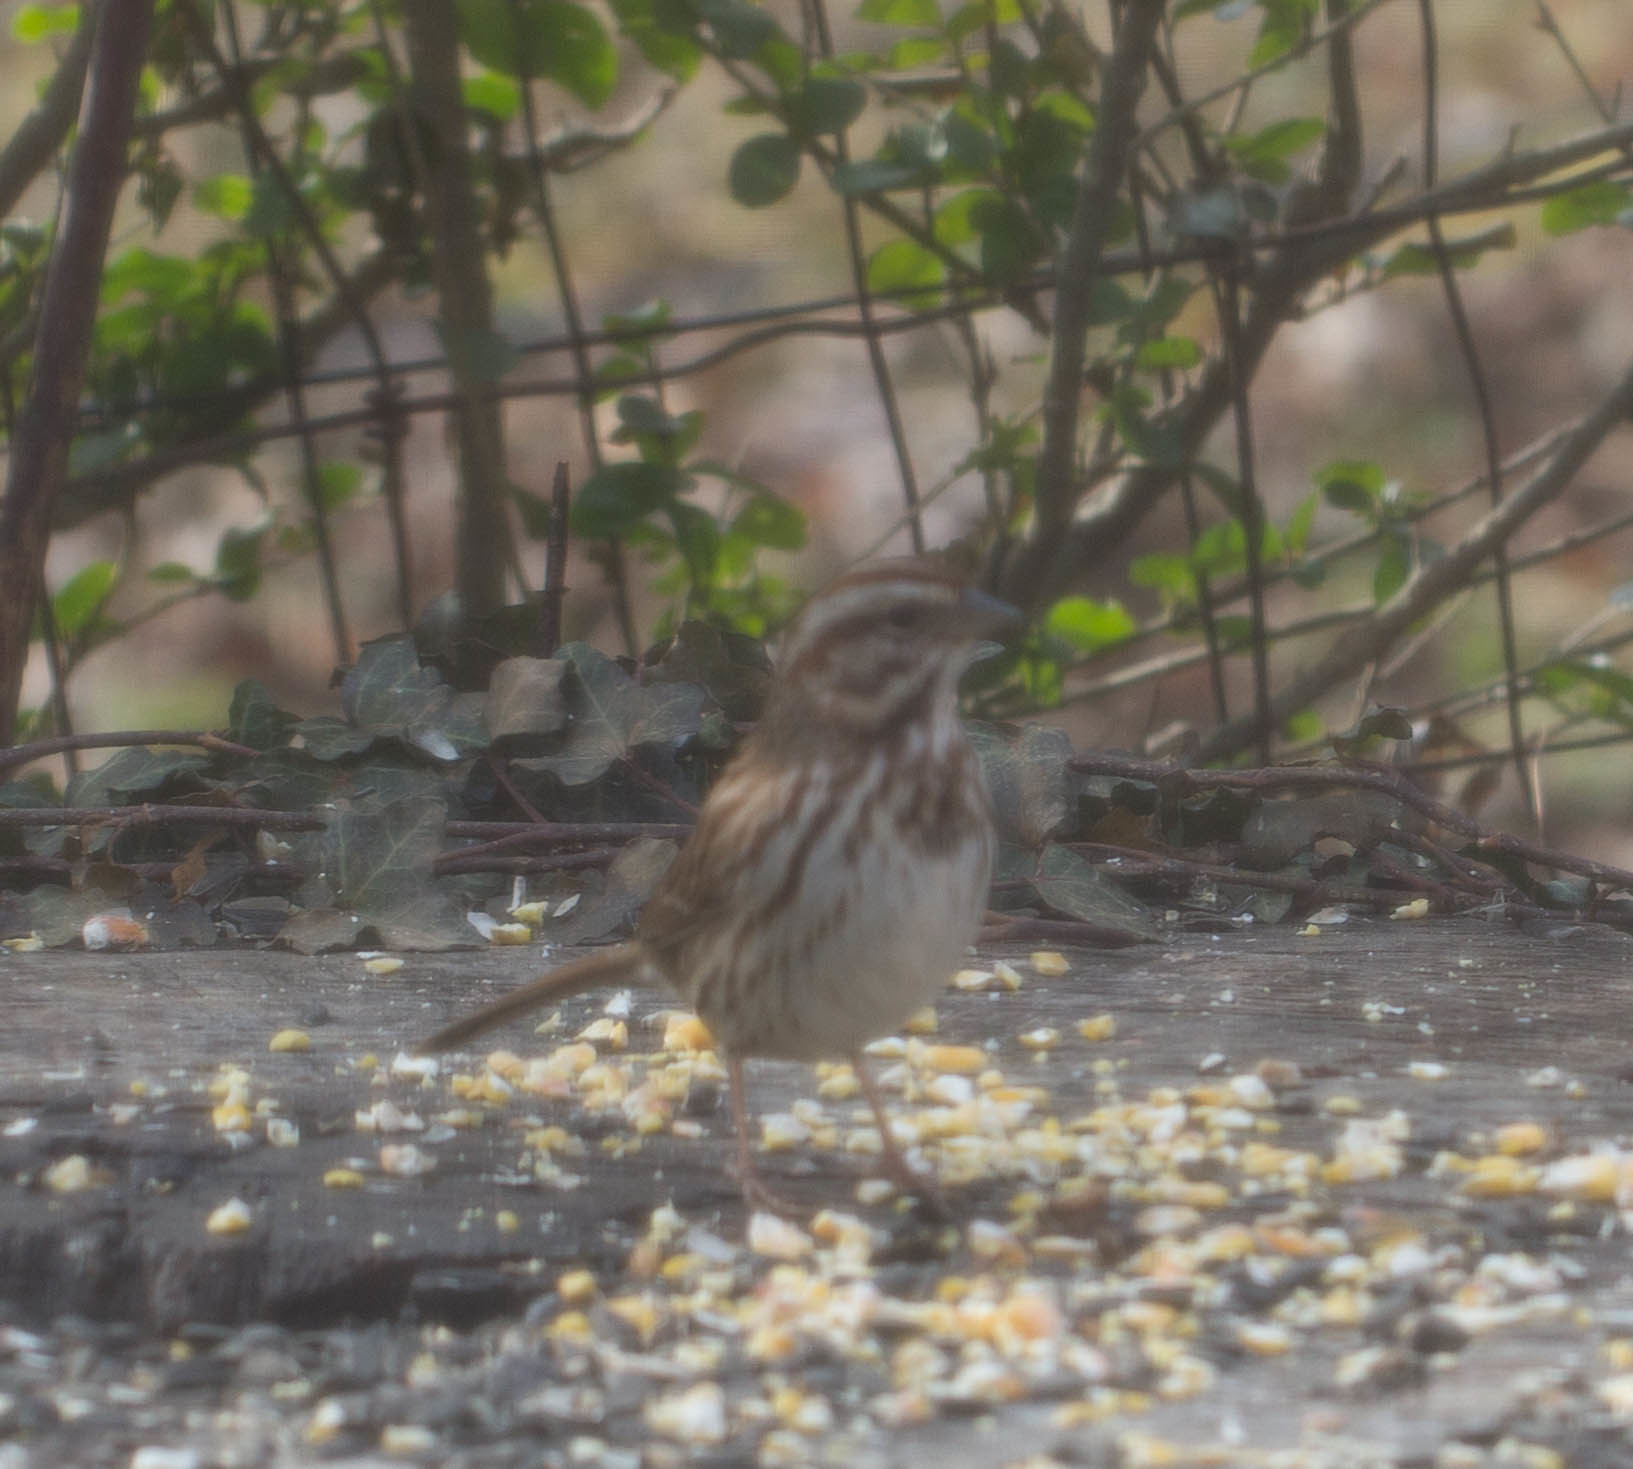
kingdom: Animalia
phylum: Chordata
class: Aves
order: Passeriformes
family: Passerellidae
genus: Melospiza
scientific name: Melospiza melodia
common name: Song sparrow
